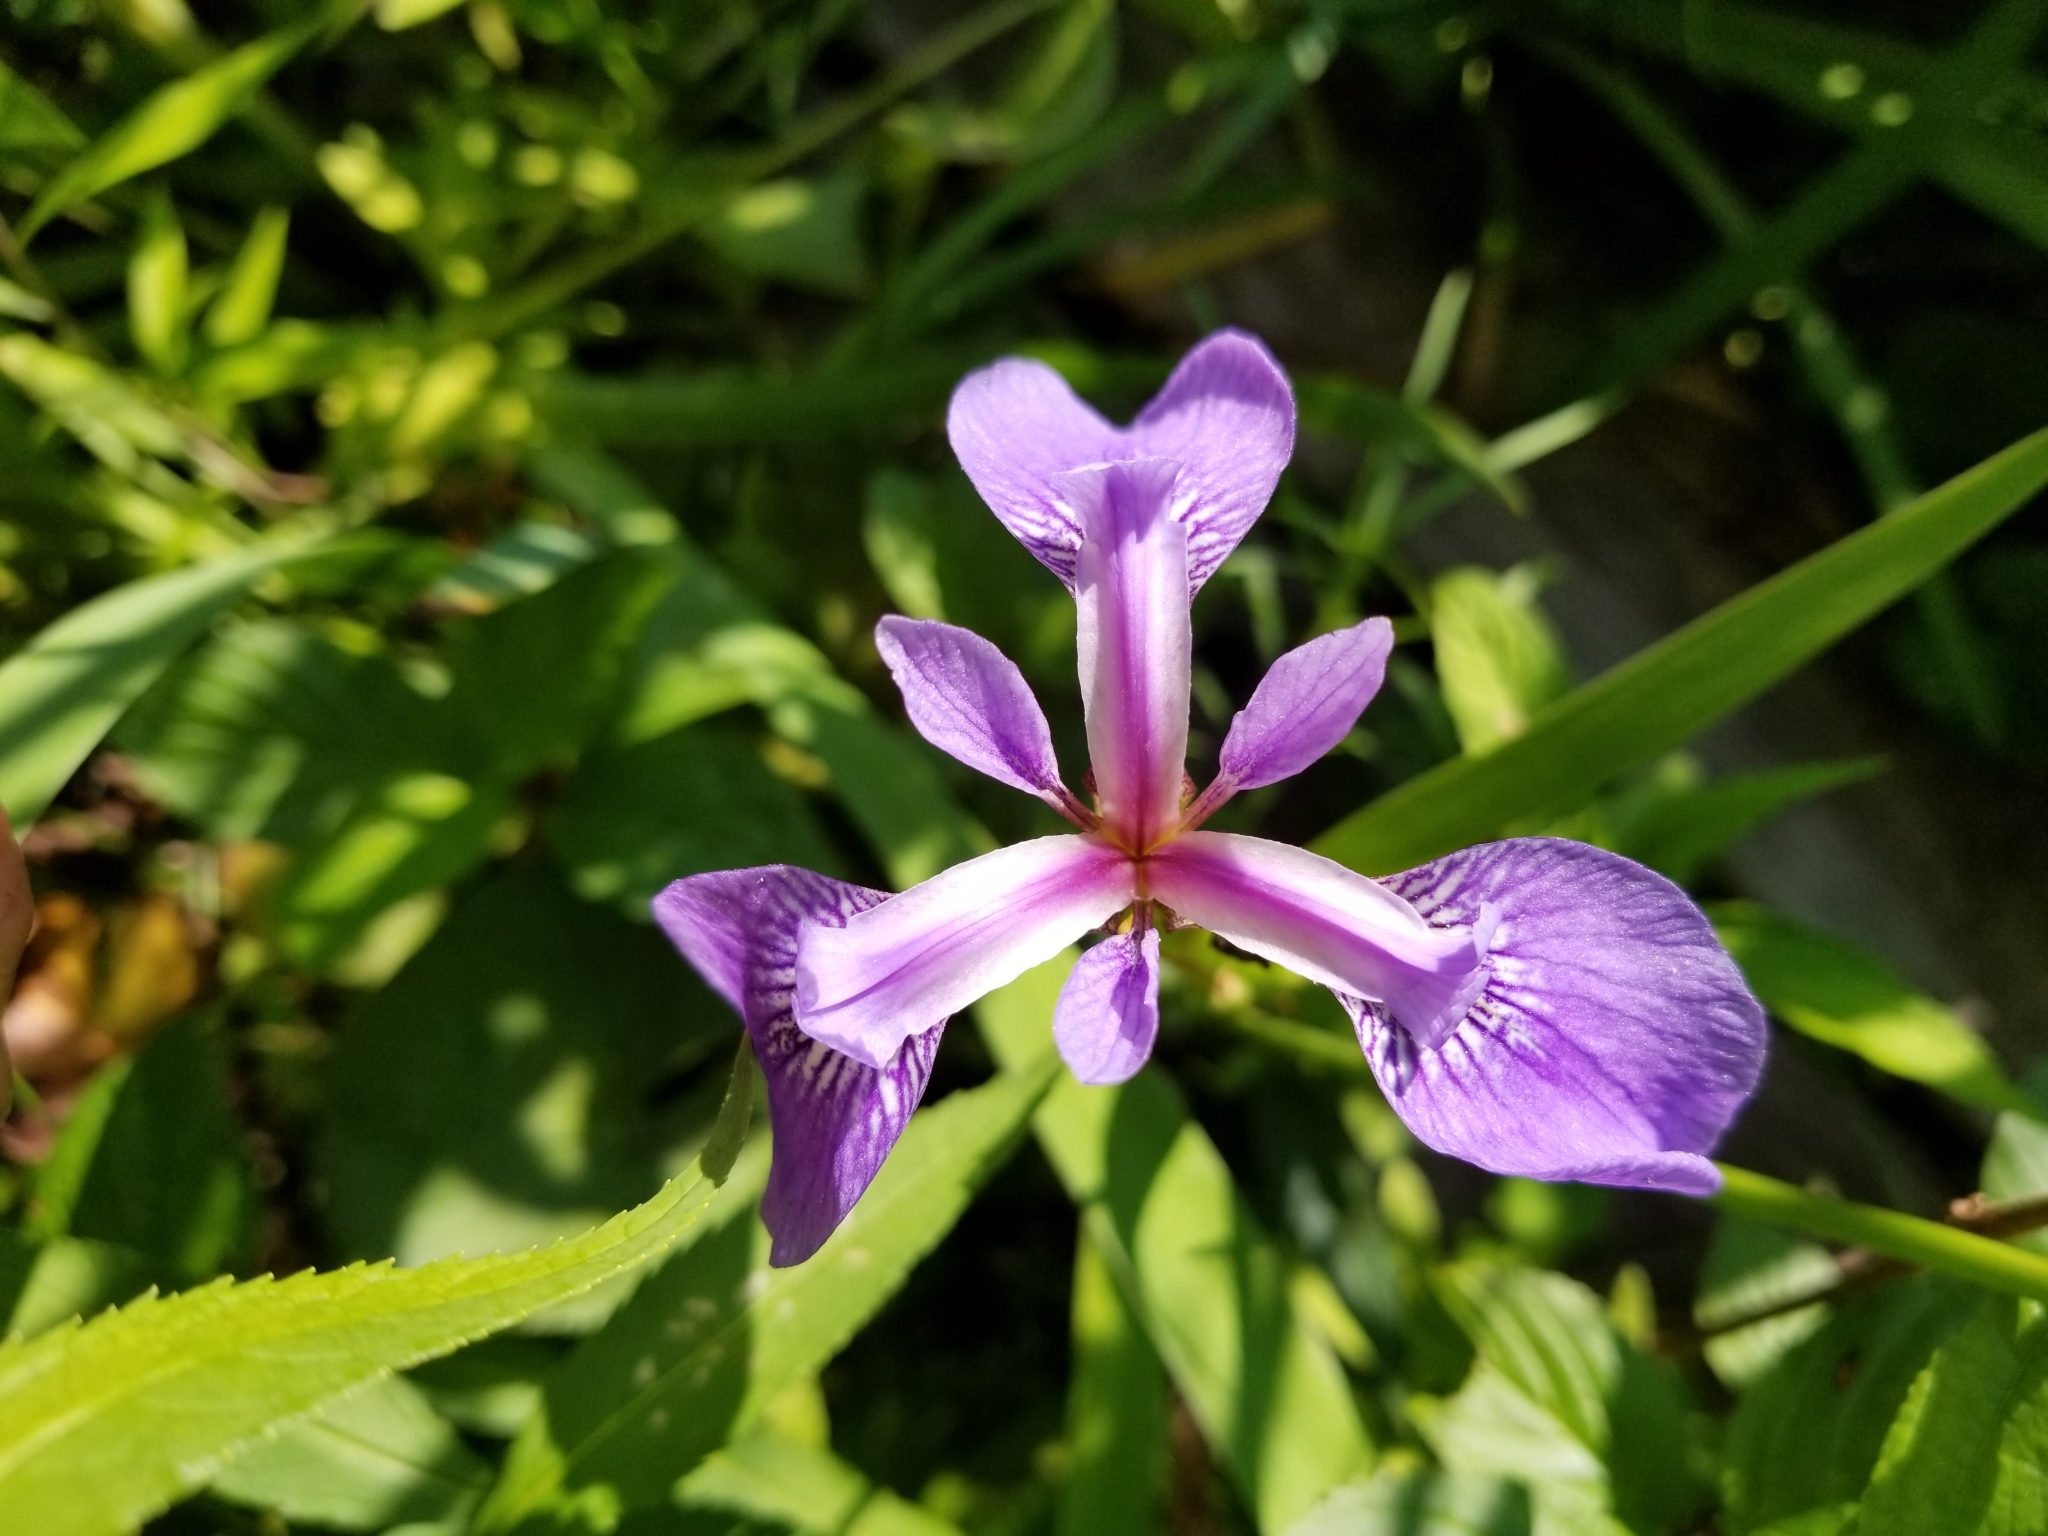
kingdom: Plantae
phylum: Tracheophyta
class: Liliopsida
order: Asparagales
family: Iridaceae
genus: Iris
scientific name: Iris versicolor
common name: Purple iris
